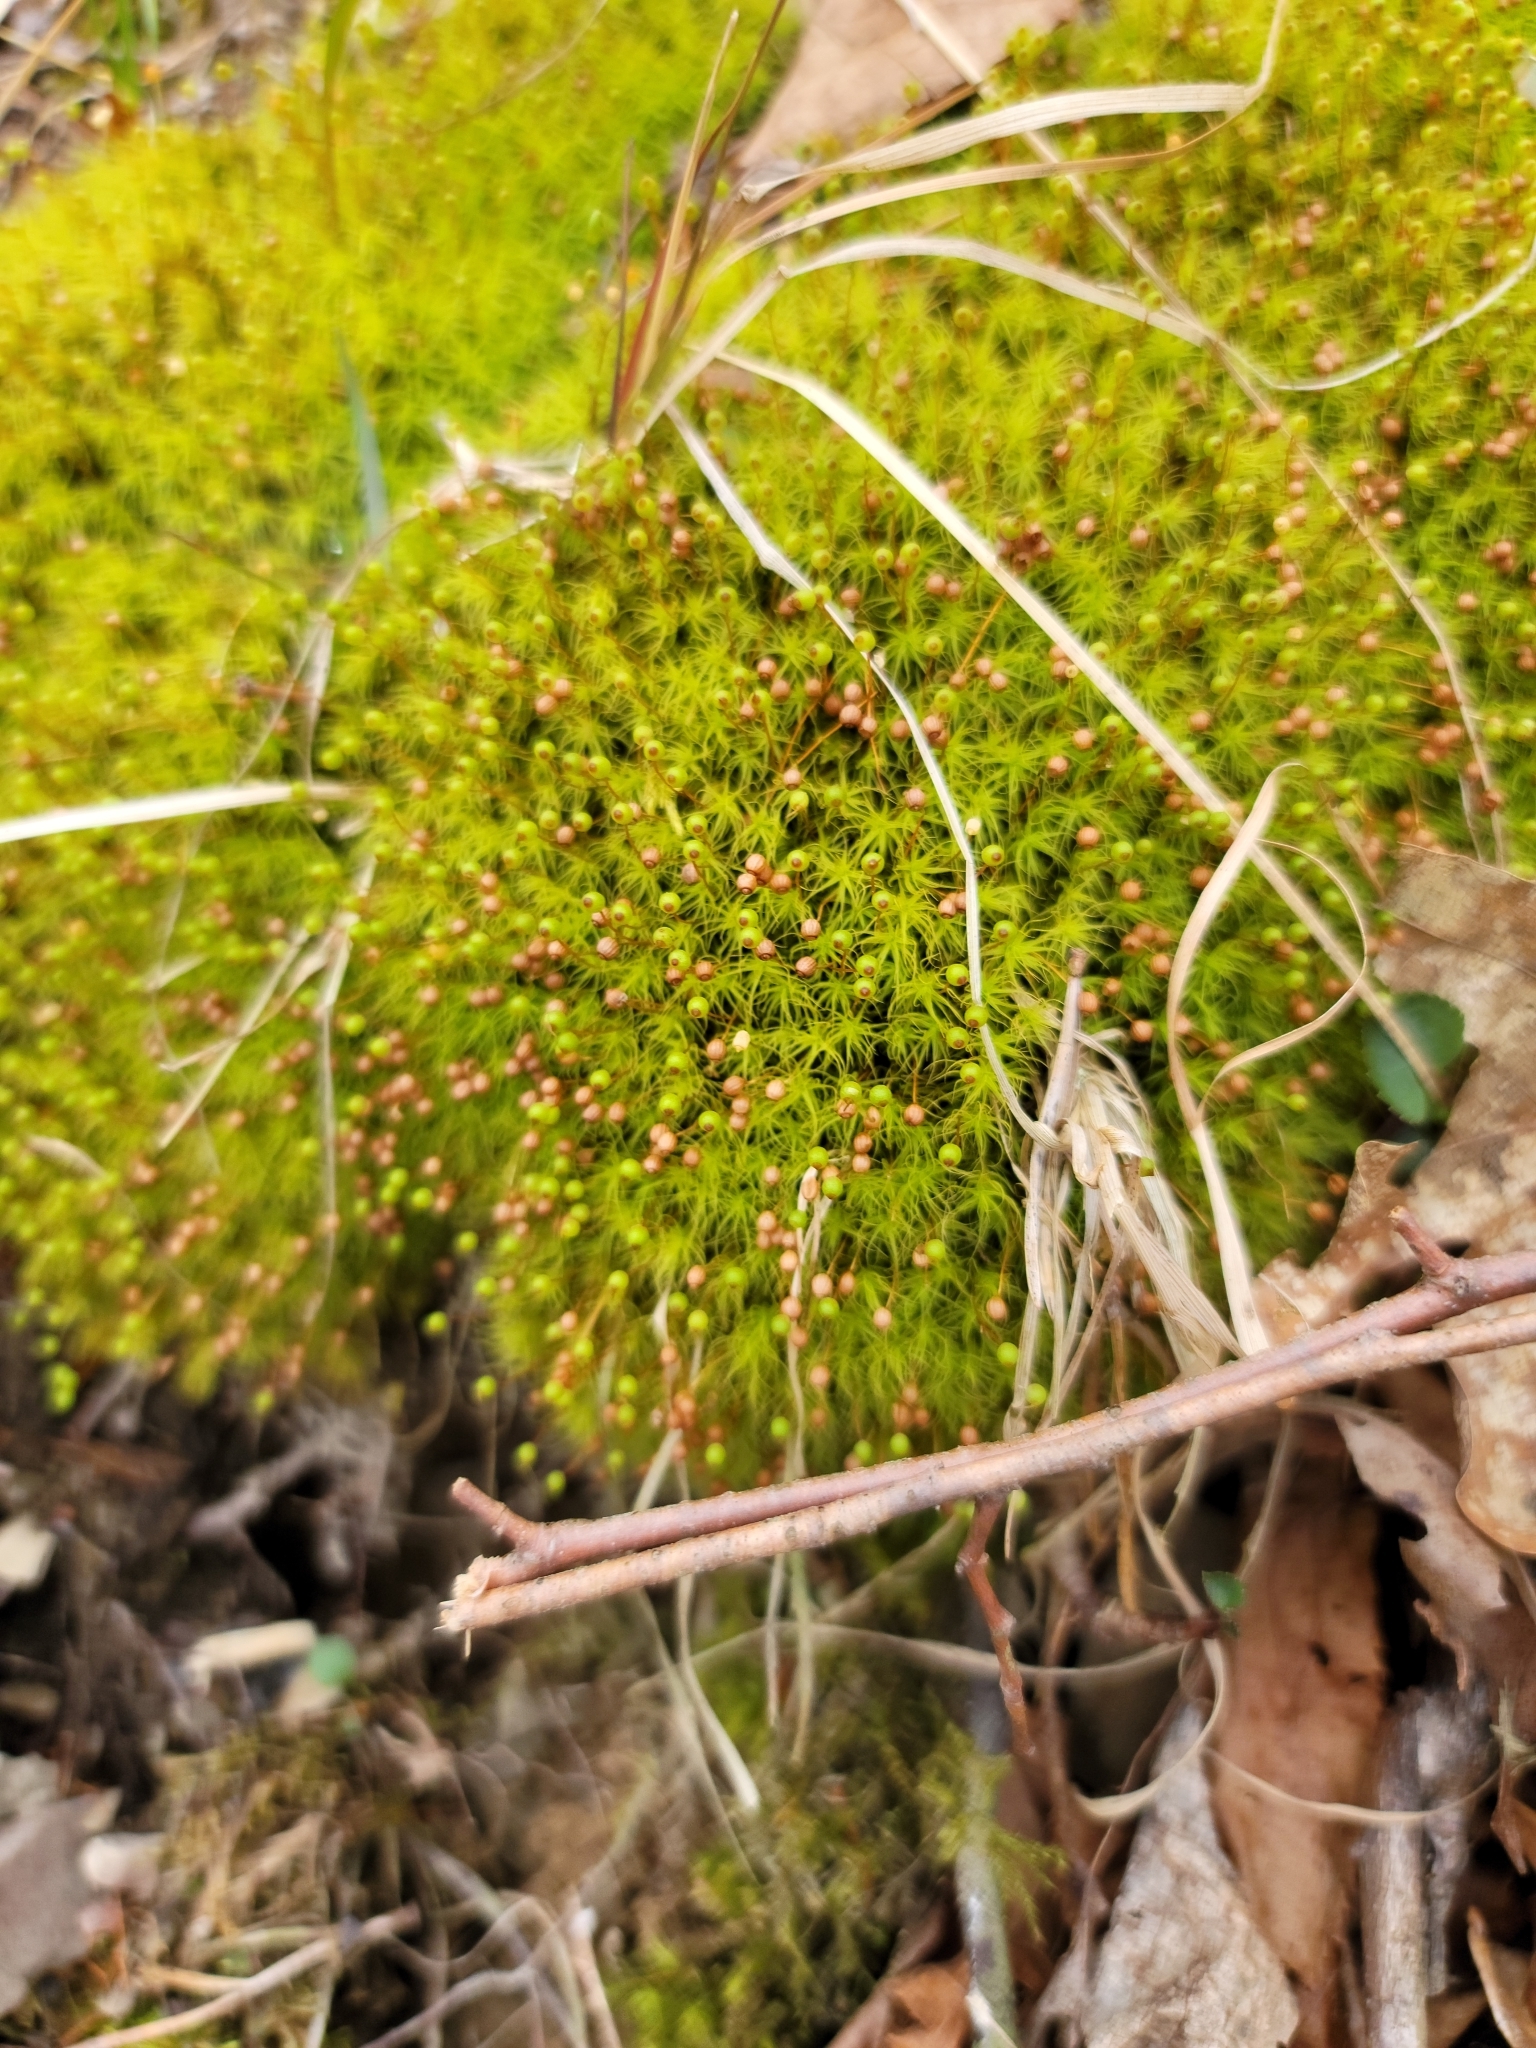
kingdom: Plantae
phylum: Bryophyta
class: Bryopsida
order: Bartramiales
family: Bartramiaceae
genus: Bartramia
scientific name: Bartramia ithyphylla
